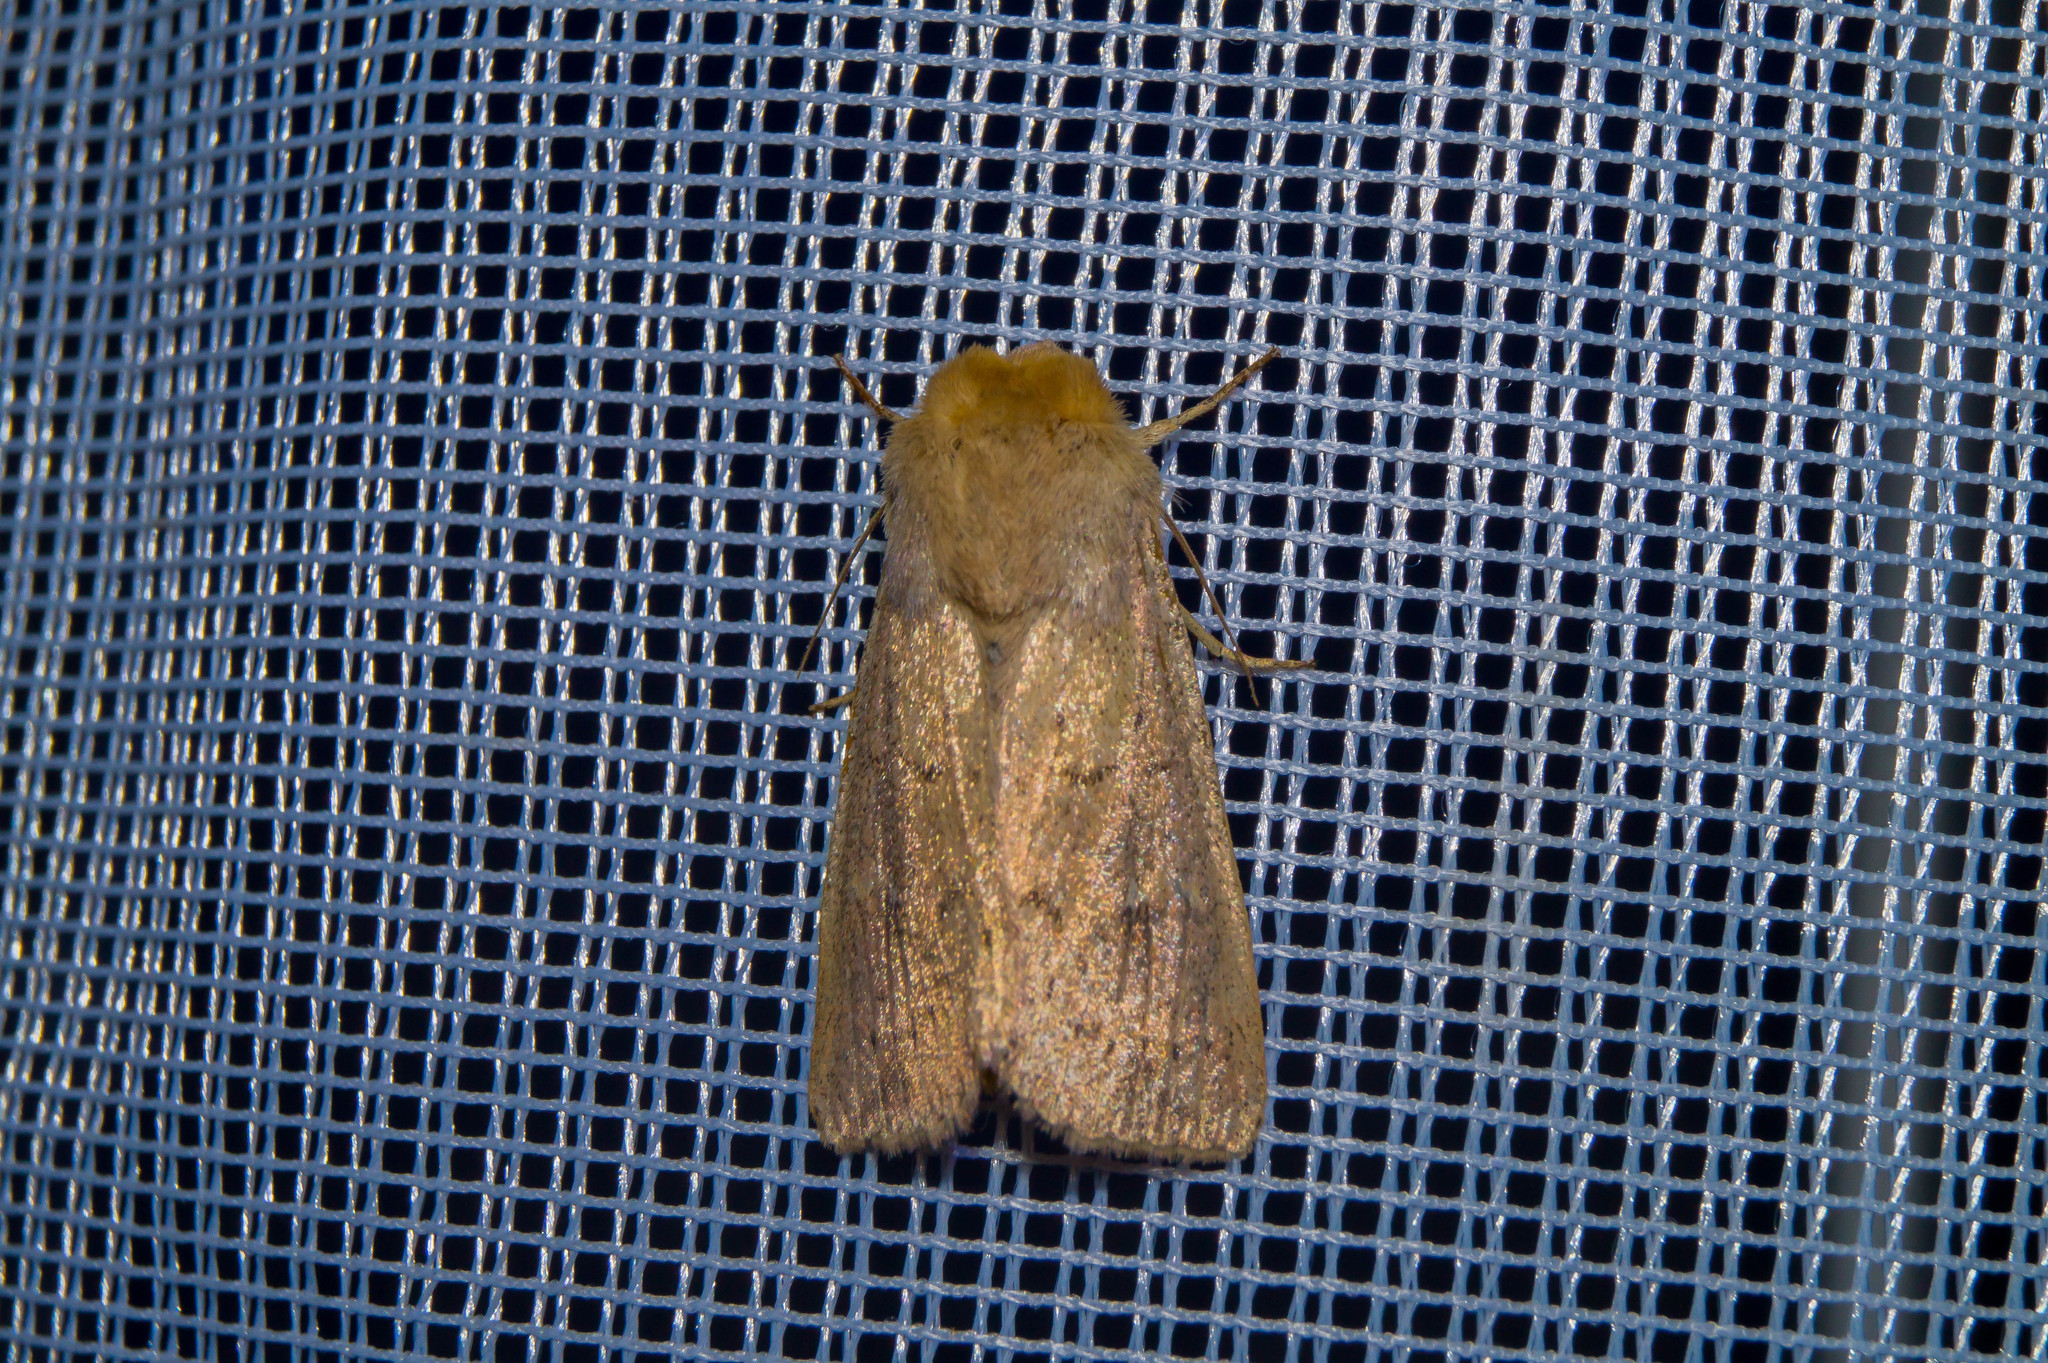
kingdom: Animalia
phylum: Arthropoda
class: Insecta
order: Lepidoptera
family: Noctuidae
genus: Mythimna
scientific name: Mythimna ferrago
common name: Clay
